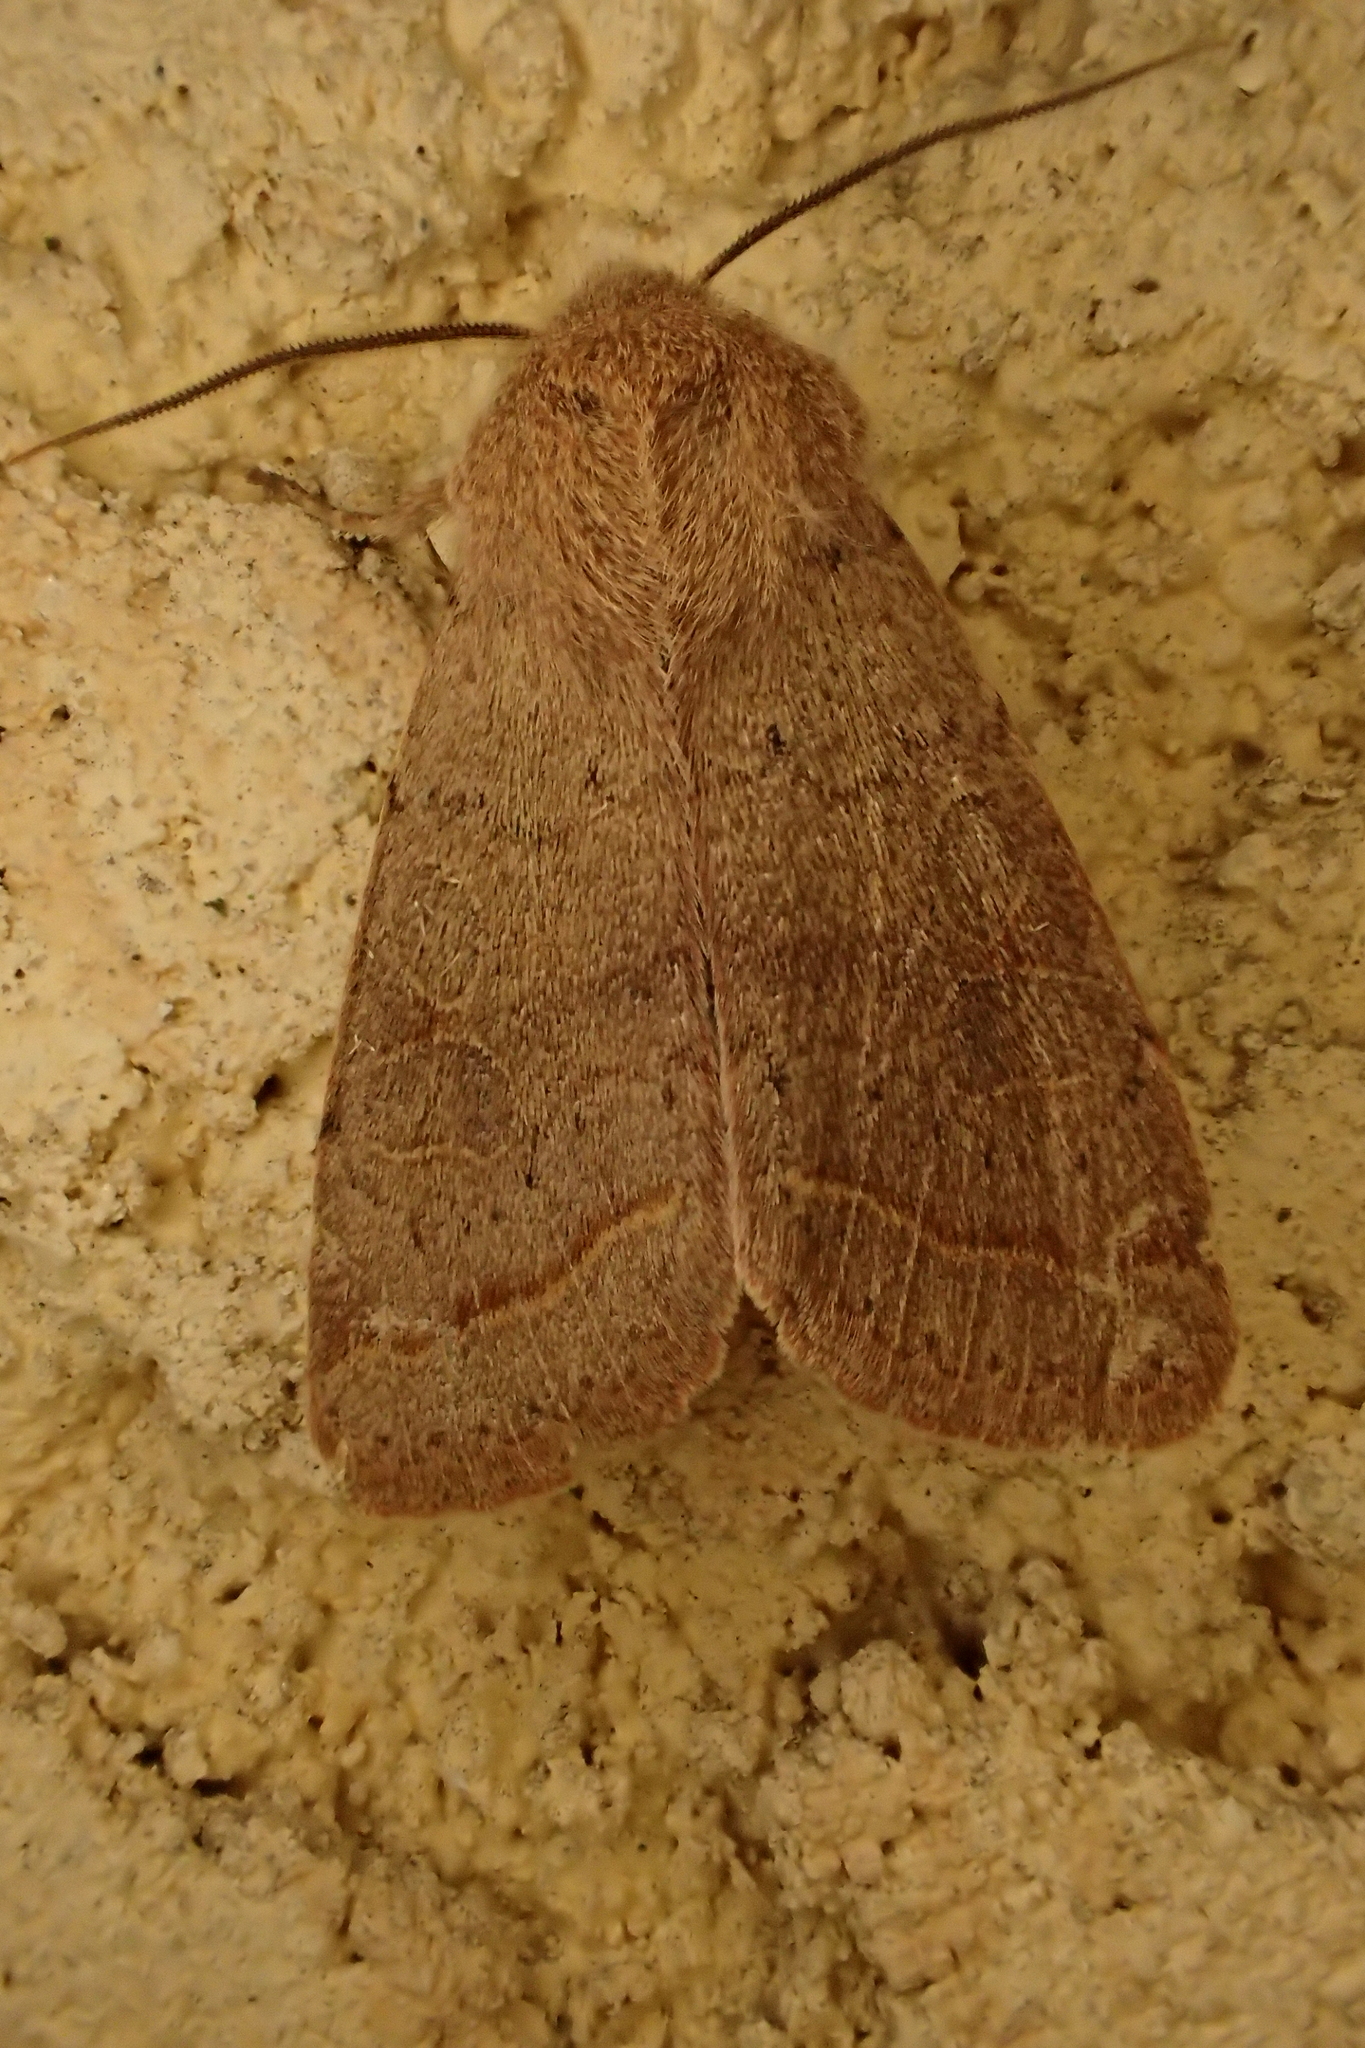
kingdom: Animalia
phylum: Arthropoda
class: Insecta
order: Lepidoptera
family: Noctuidae
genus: Orthosia
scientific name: Orthosia cerasi
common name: Common quaker
